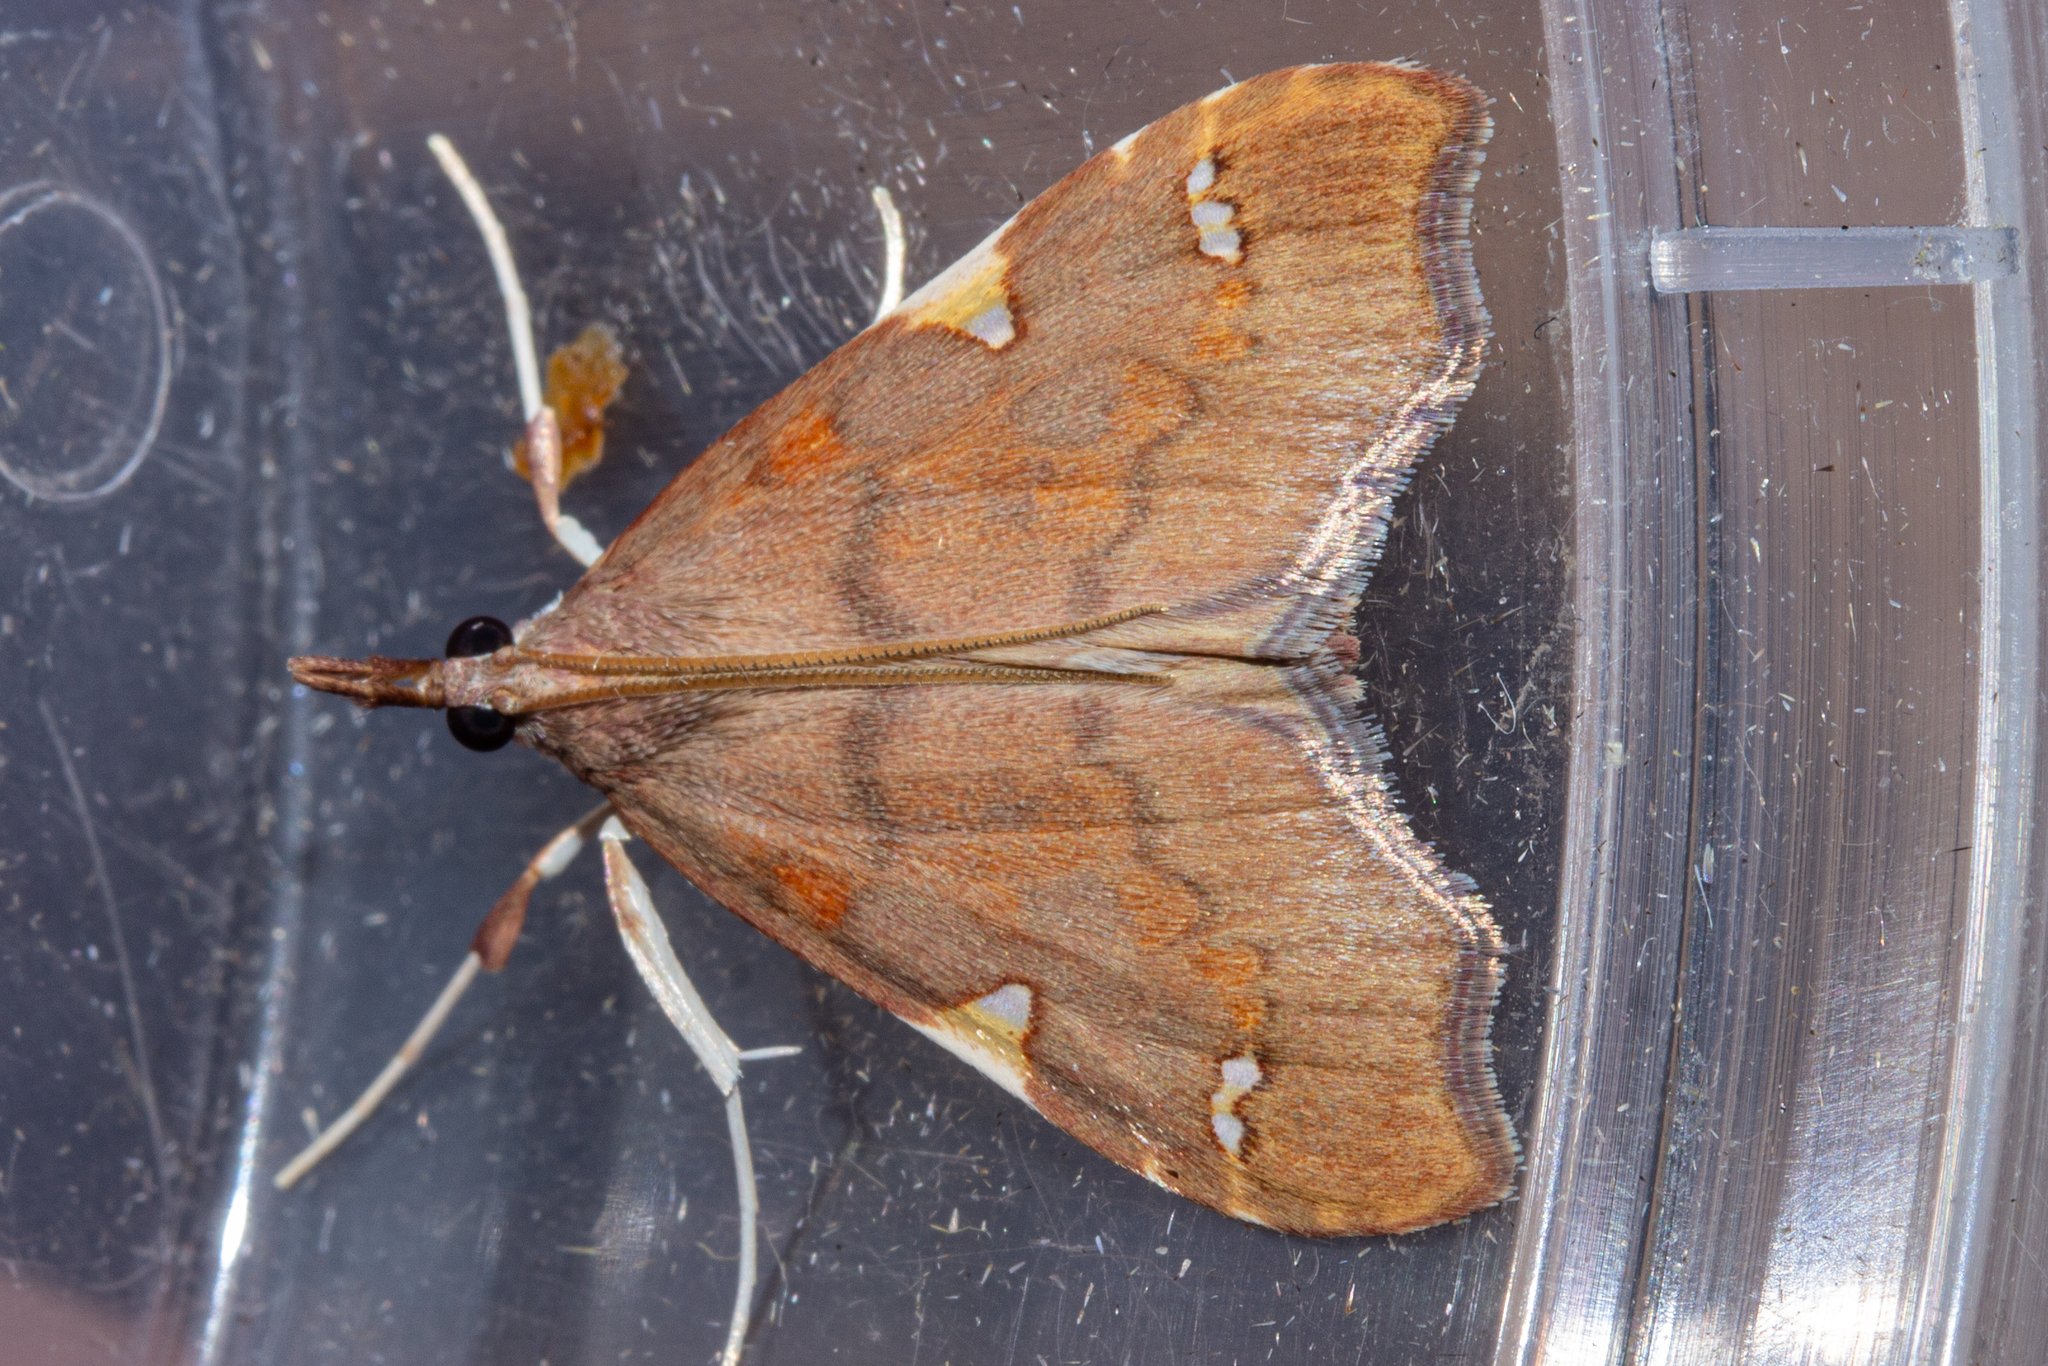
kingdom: Animalia
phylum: Arthropoda
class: Insecta
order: Lepidoptera
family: Crambidae
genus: Deana
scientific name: Deana hybreasalis
